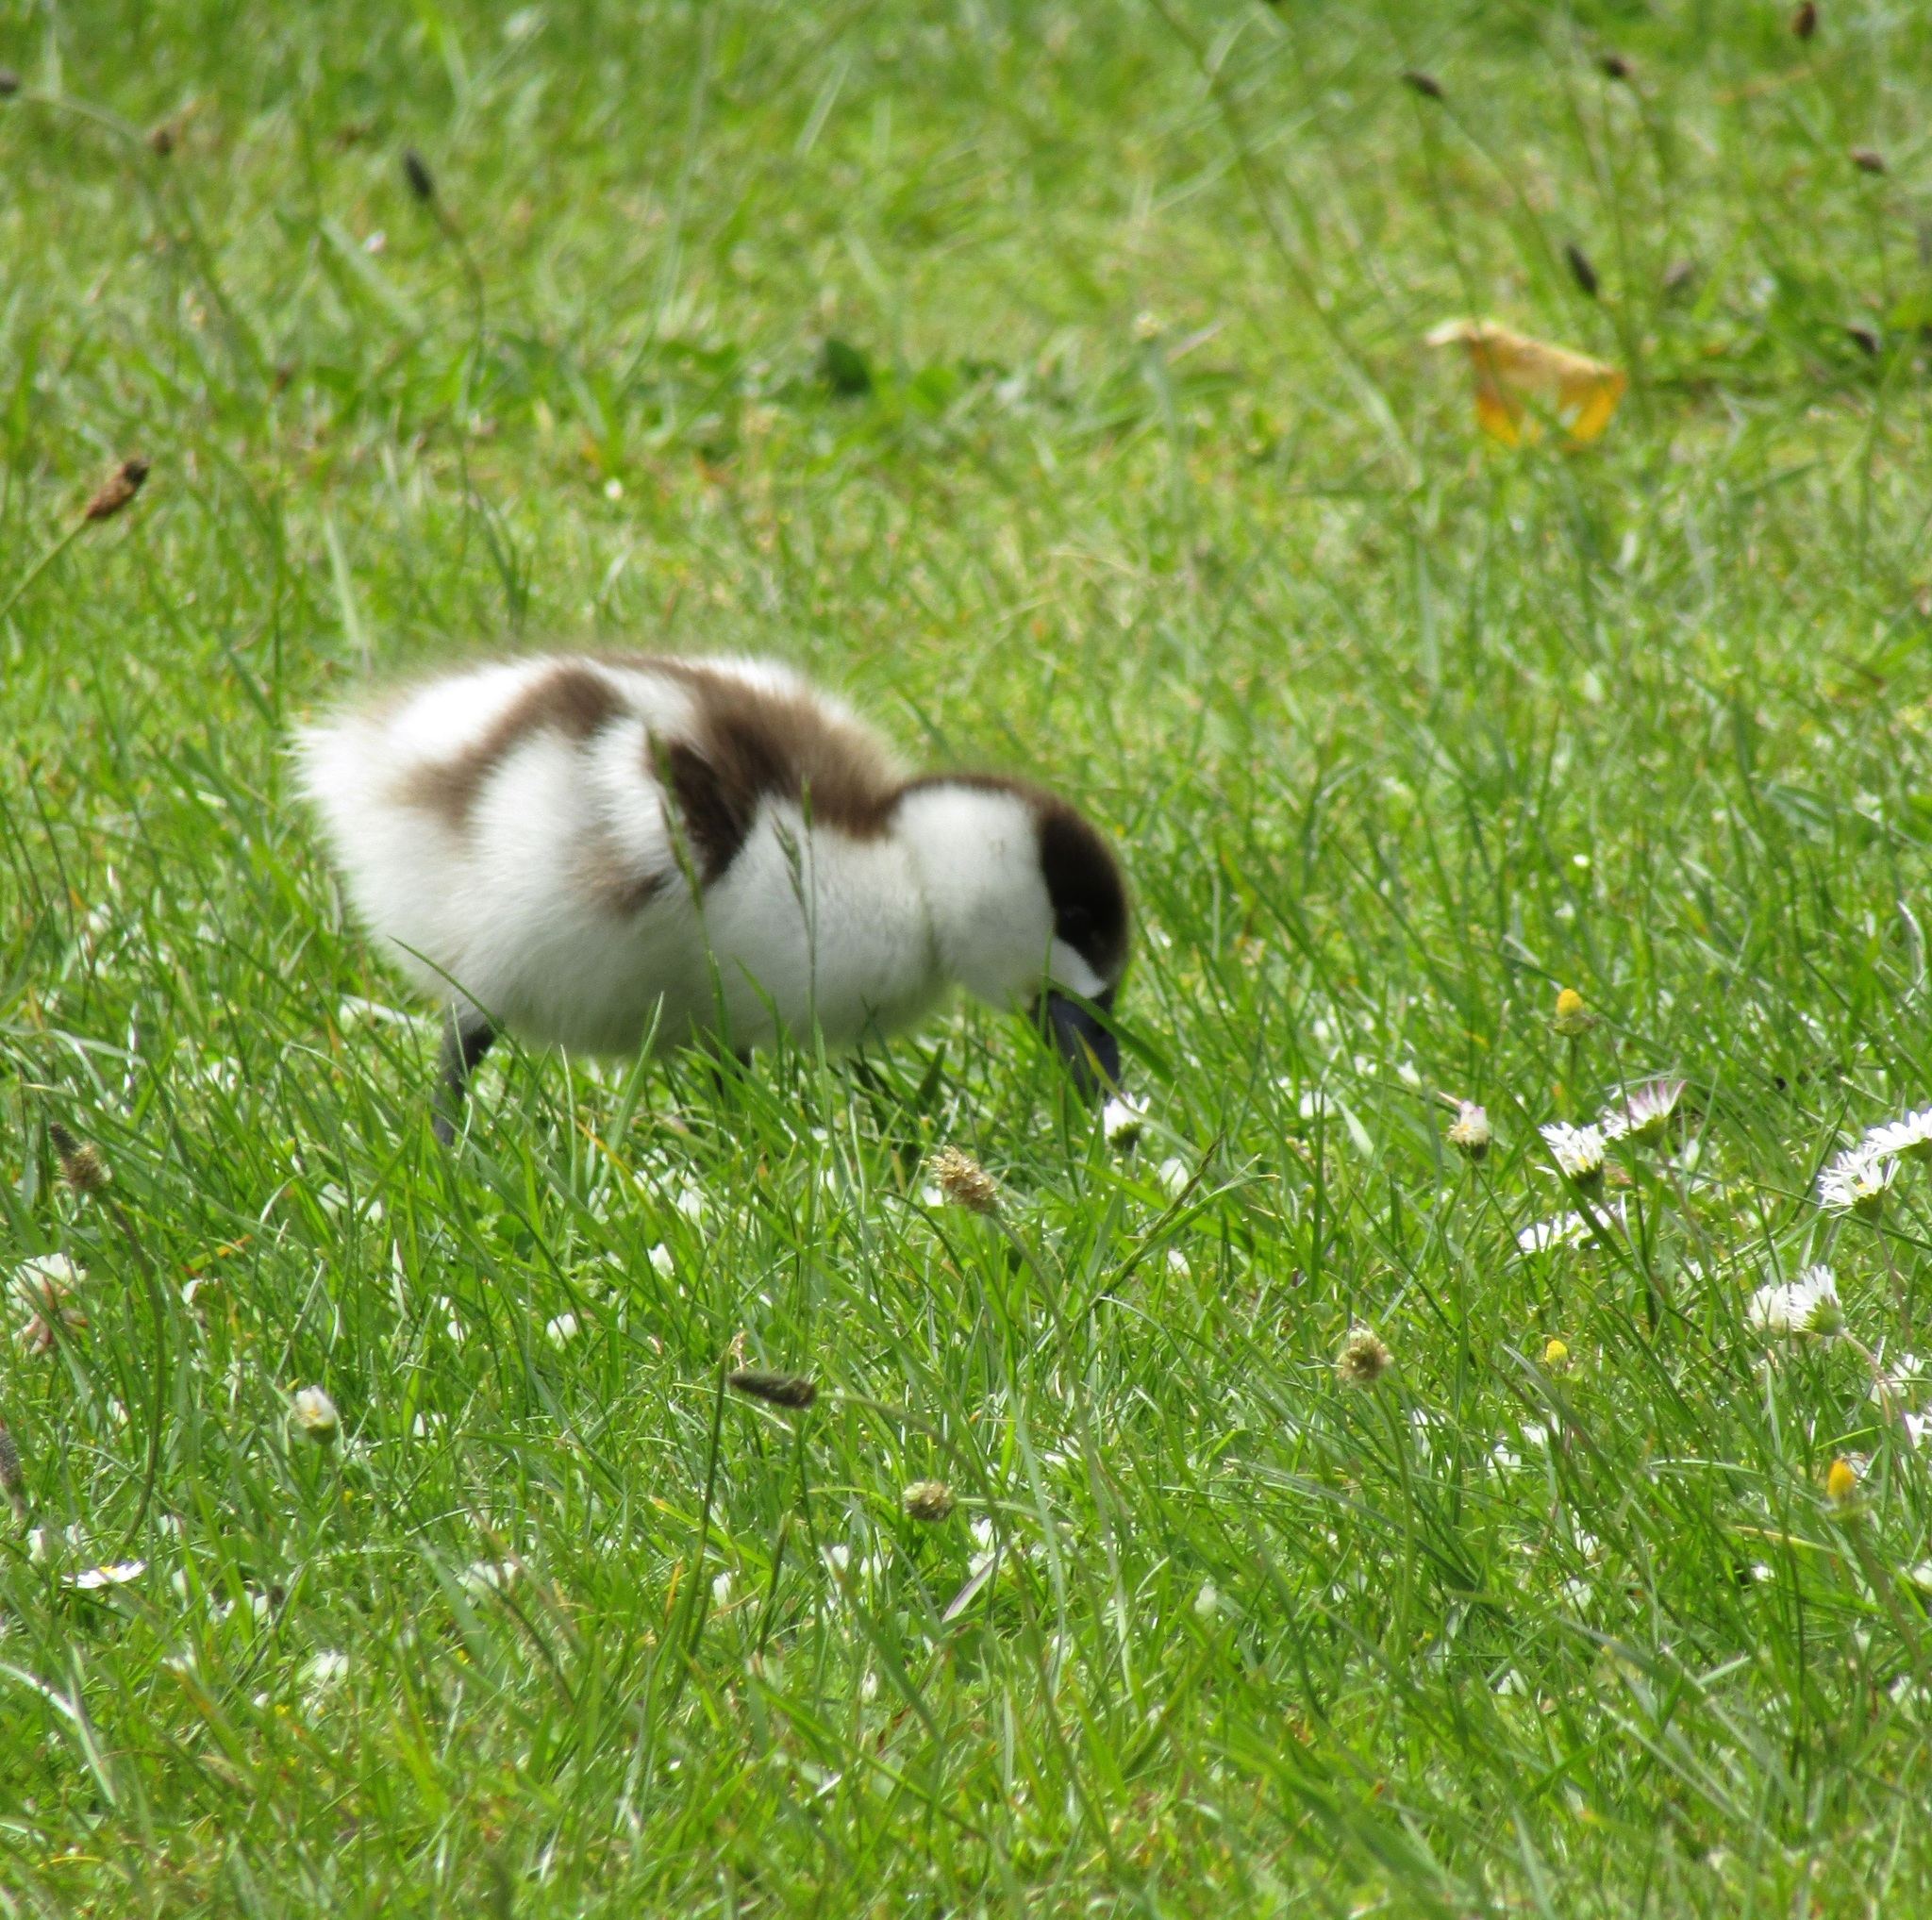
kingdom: Animalia
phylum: Chordata
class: Aves
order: Anseriformes
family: Anatidae
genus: Tadorna
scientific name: Tadorna variegata
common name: Paradise shelduck
